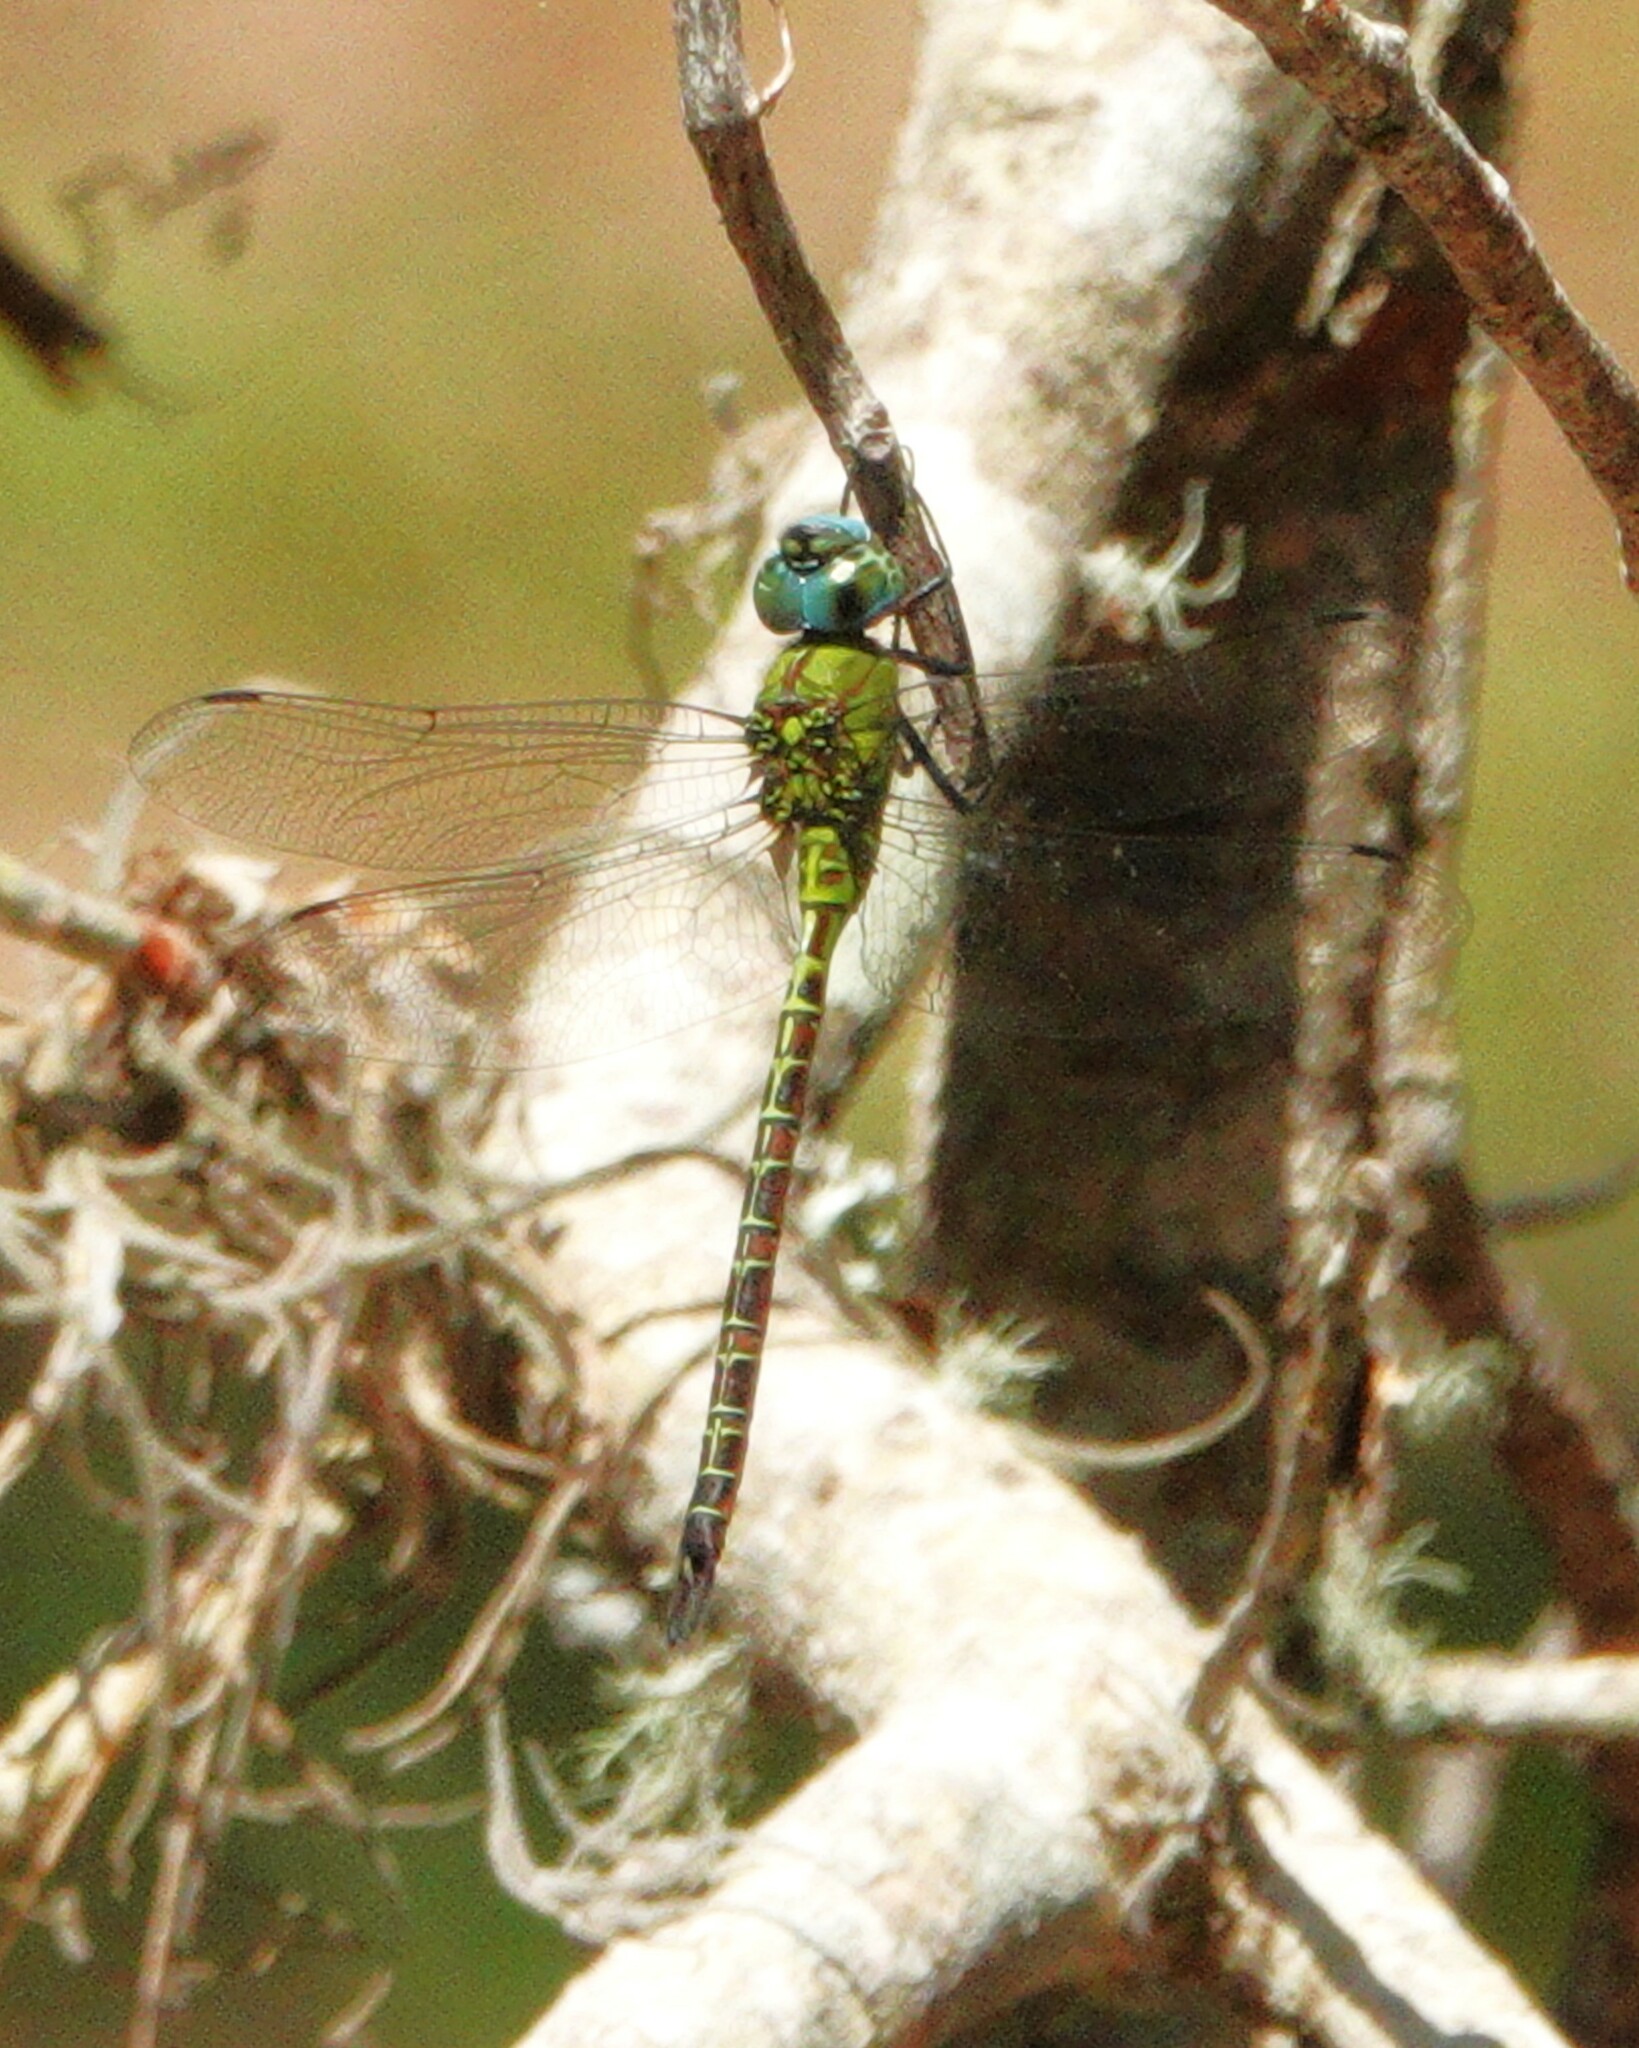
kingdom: Animalia
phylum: Arthropoda
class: Insecta
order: Odonata
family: Aeshnidae
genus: Coryphaeschna
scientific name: Coryphaeschna adnexa
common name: Blue-faced darner
